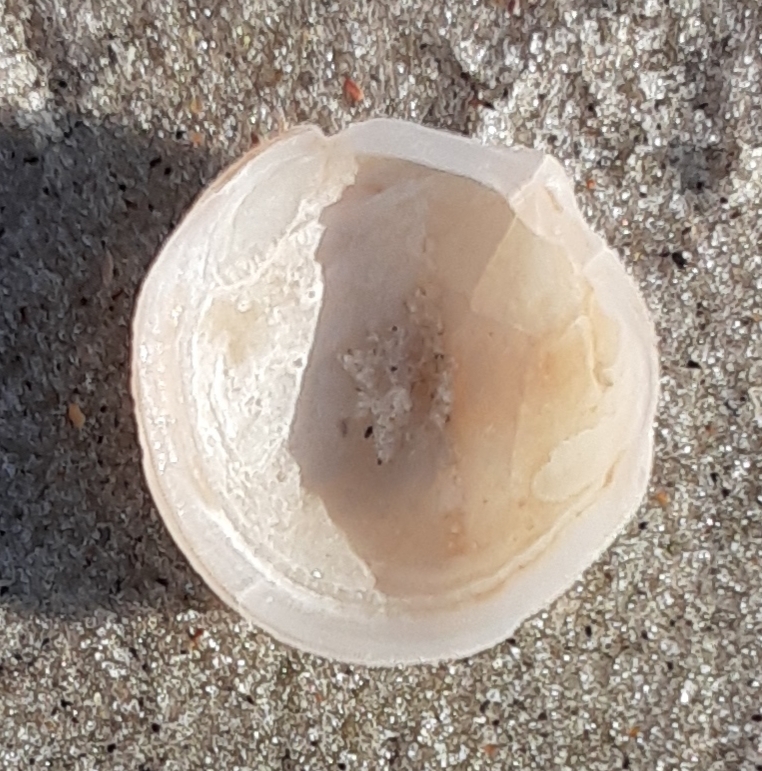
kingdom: Animalia
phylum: Mollusca
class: Bivalvia
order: Lucinida
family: Lucinidae
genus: Divalinga
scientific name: Divalinga quadrisulcata
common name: Cross-hatched lucine
